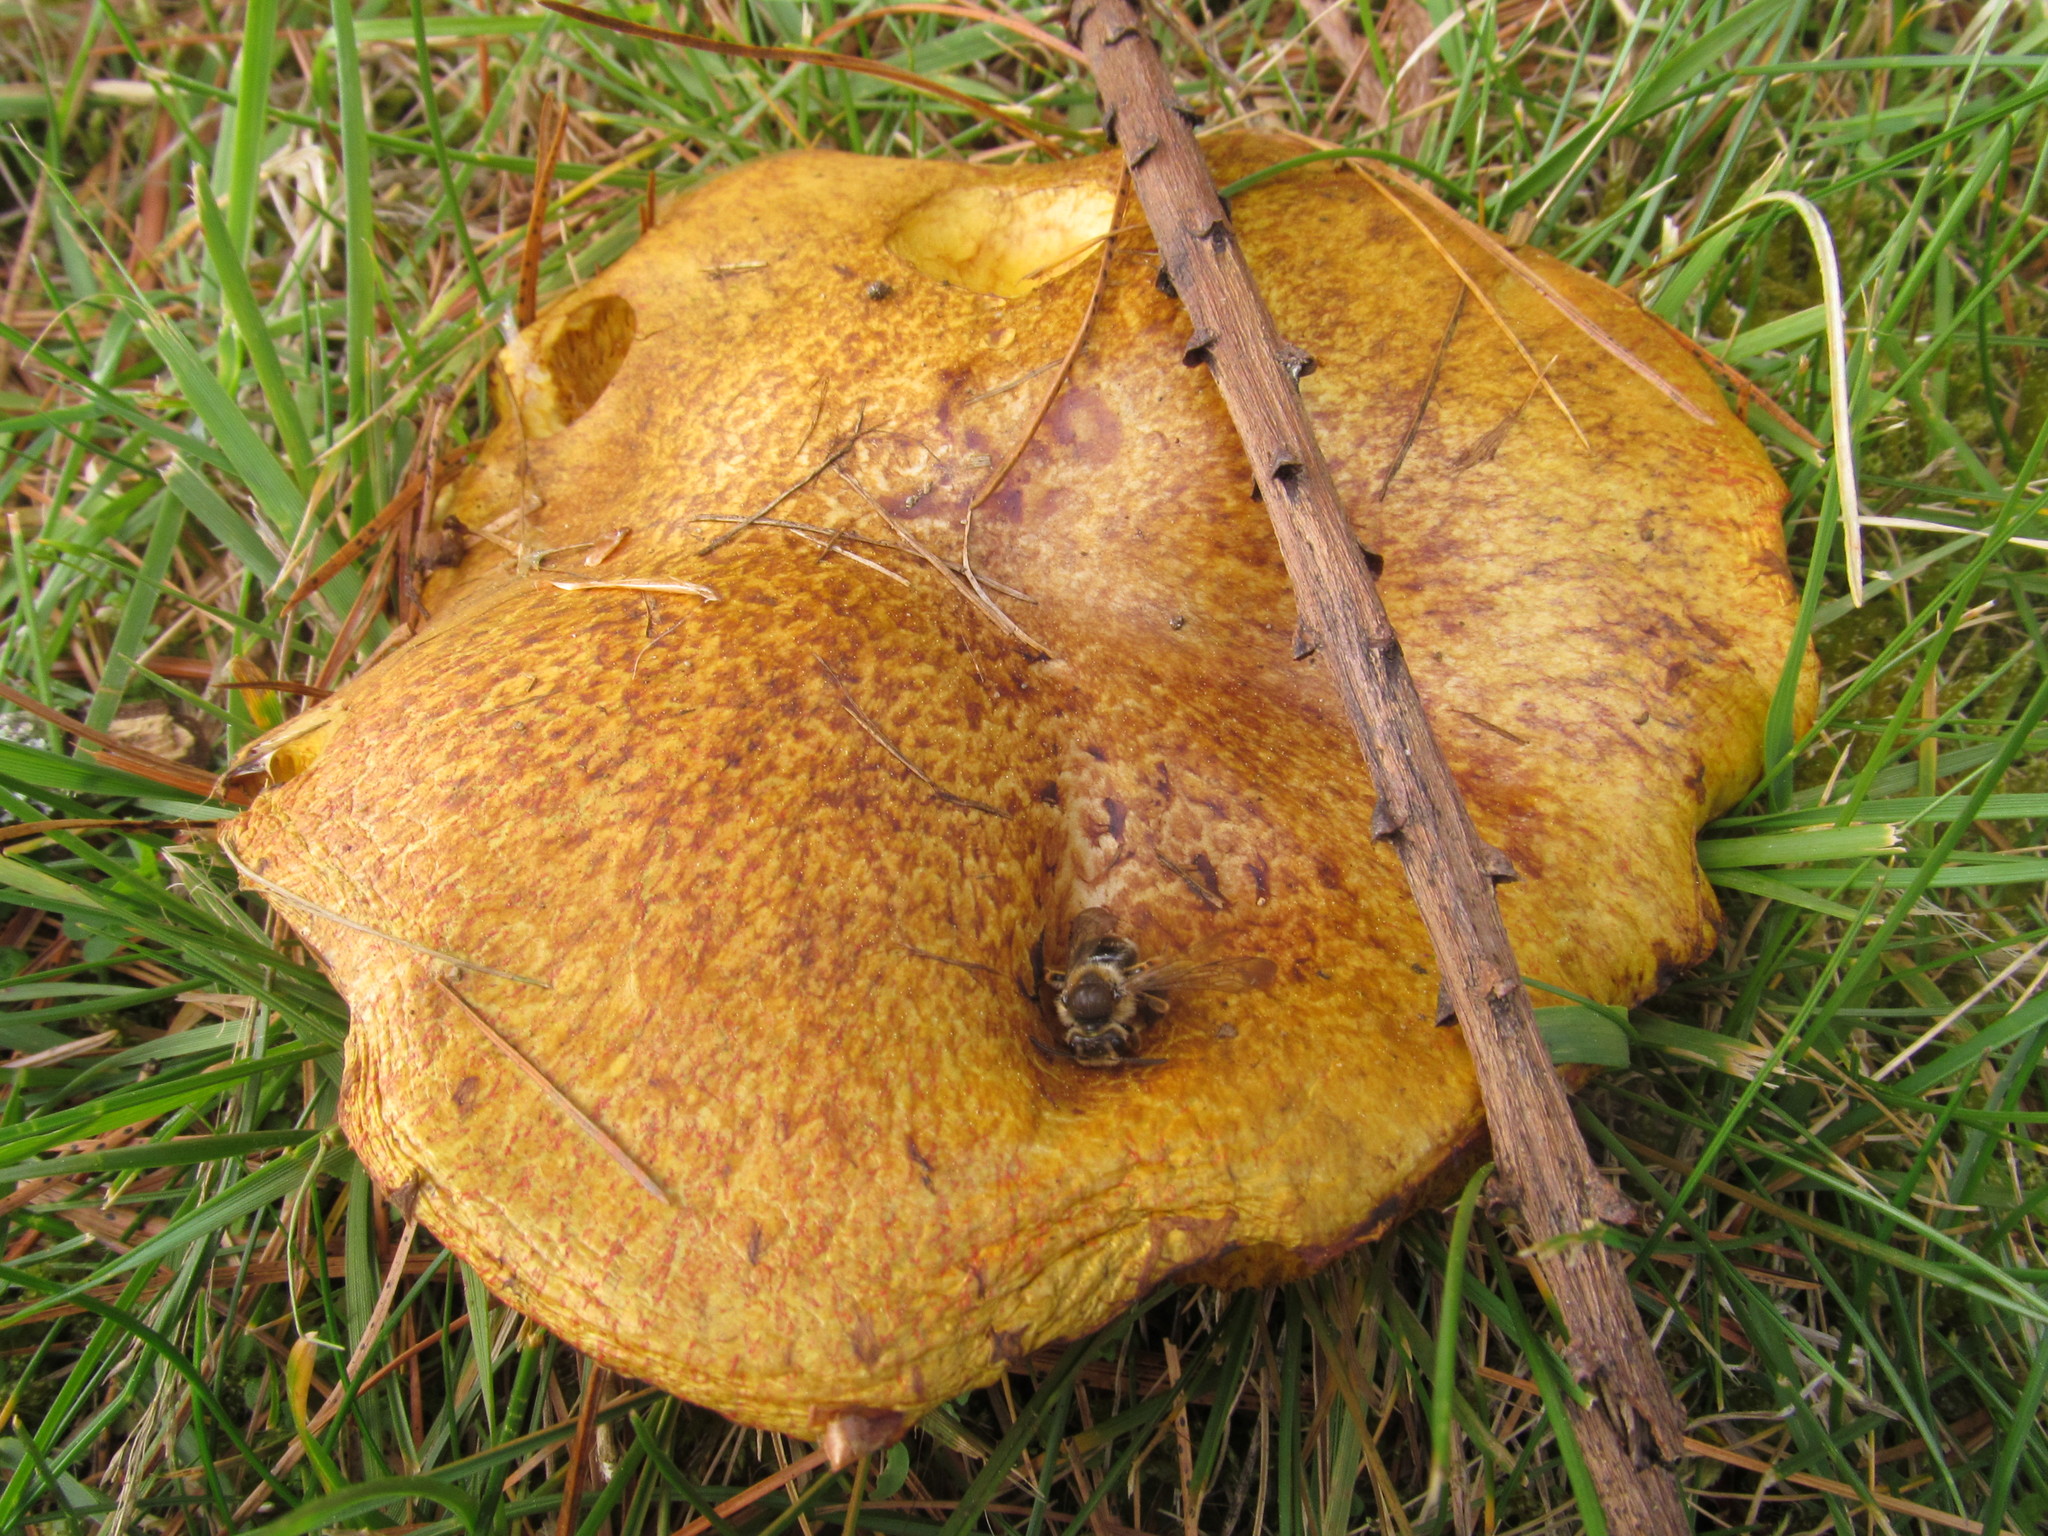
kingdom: Fungi
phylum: Basidiomycota
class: Agaricomycetes
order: Boletales
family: Suillaceae
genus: Suillus
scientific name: Suillus americanus
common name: Chicken fat mushroom
